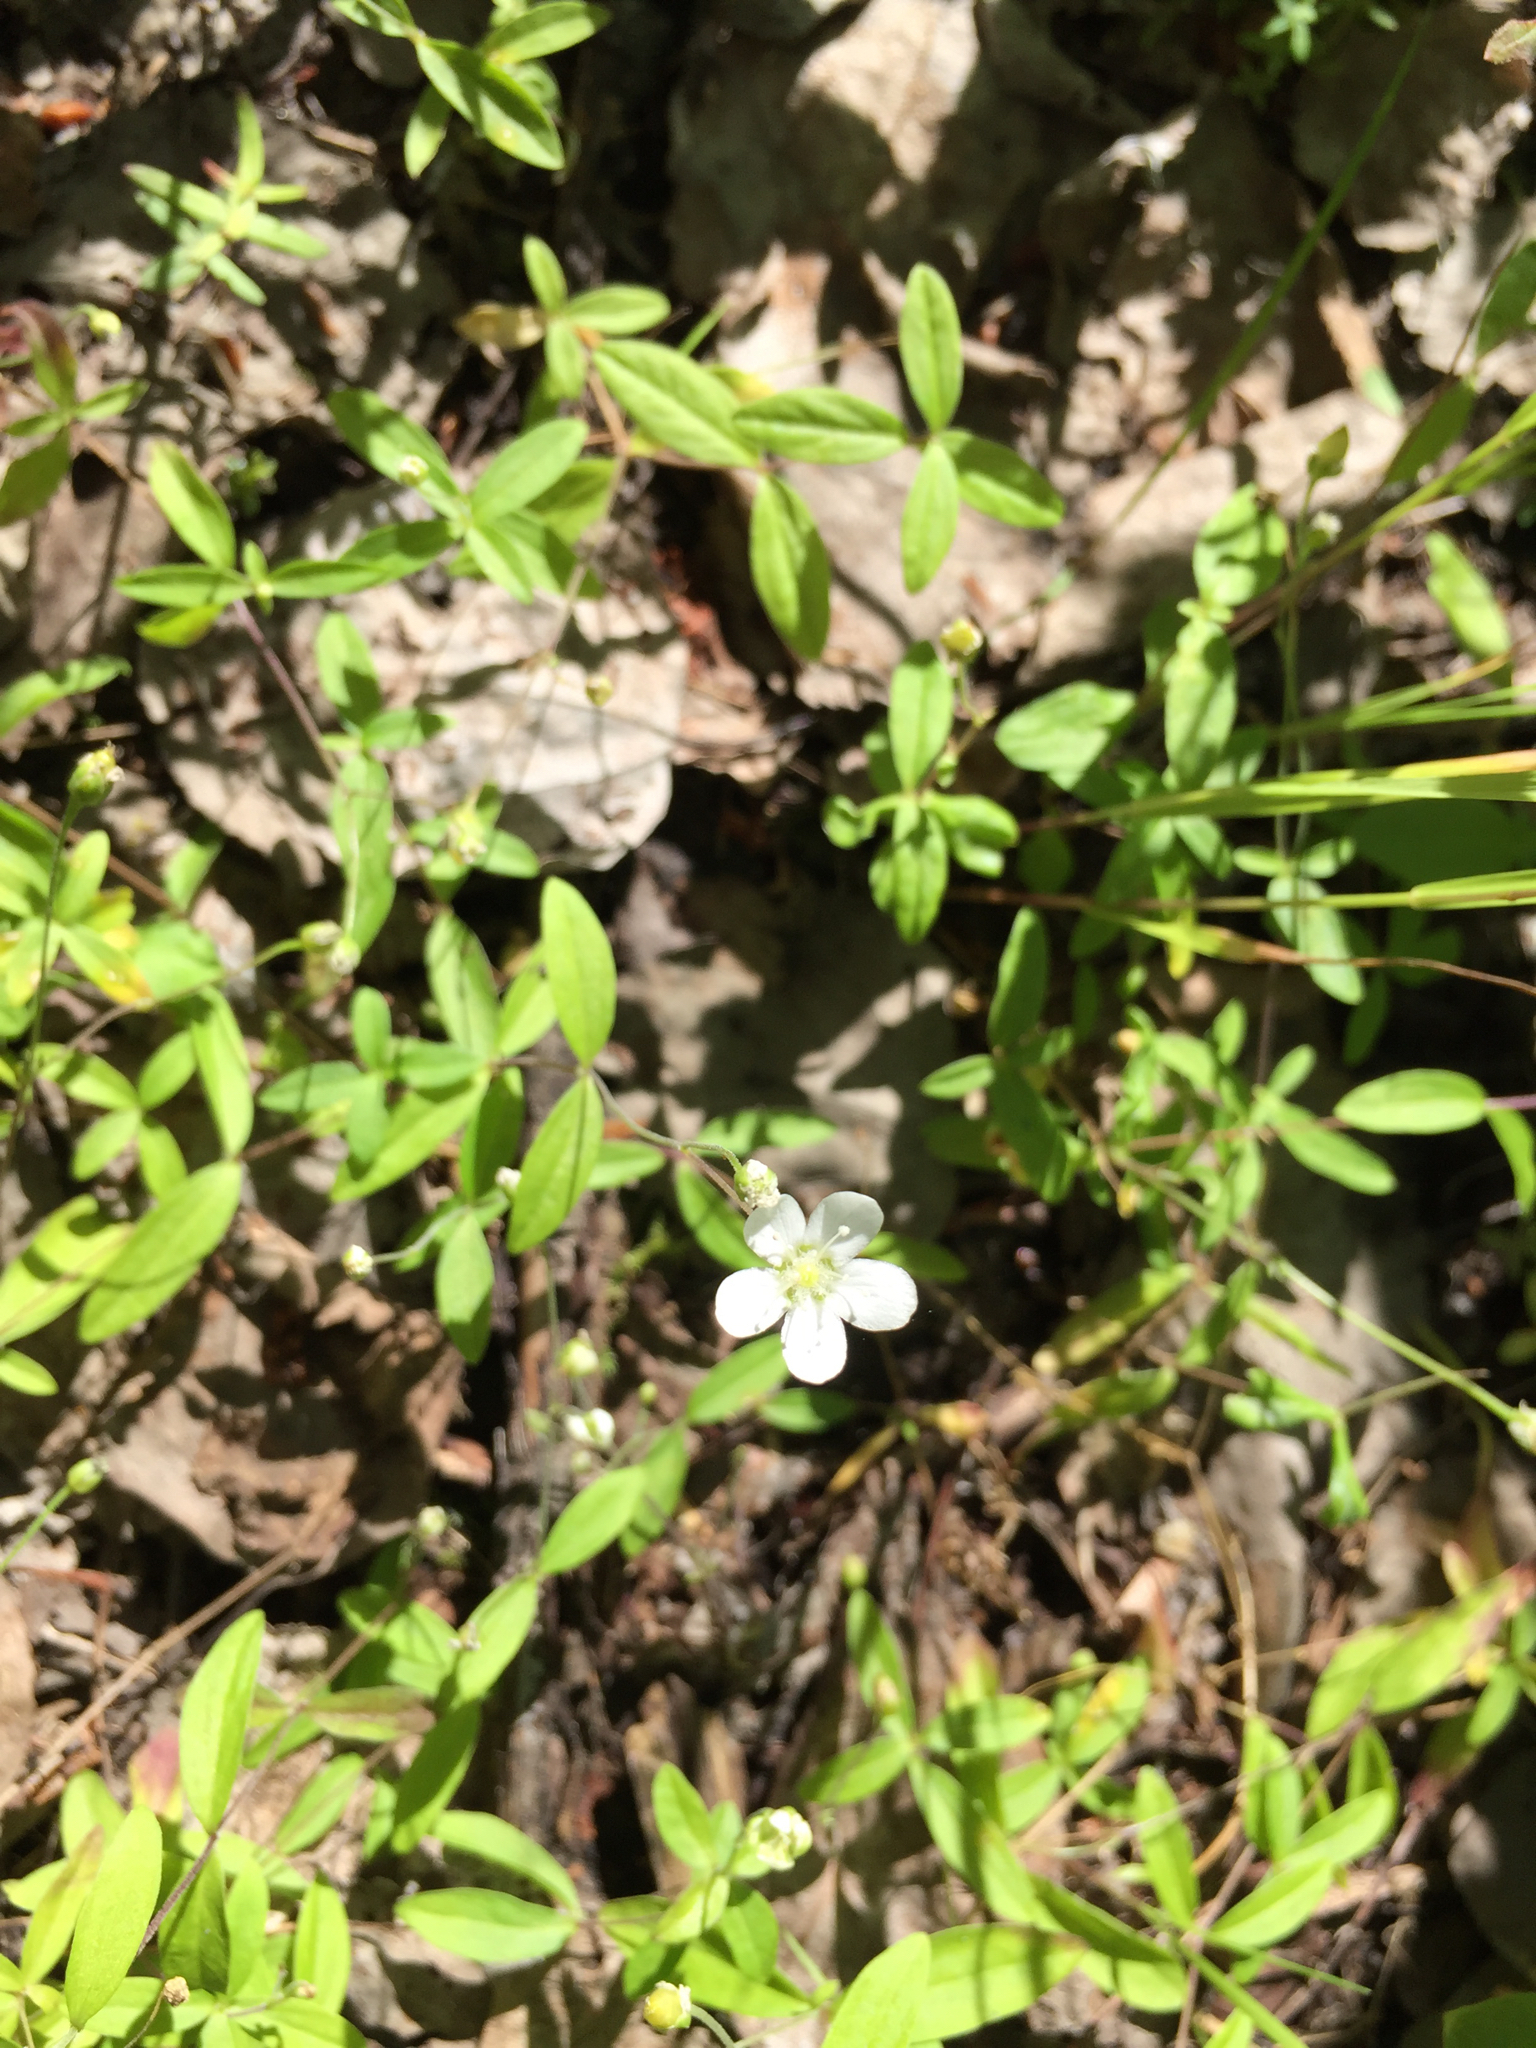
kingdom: Plantae
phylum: Tracheophyta
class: Magnoliopsida
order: Caryophyllales
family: Caryophyllaceae
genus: Moehringia
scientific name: Moehringia lateriflora
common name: Blunt-leaved sandwort
